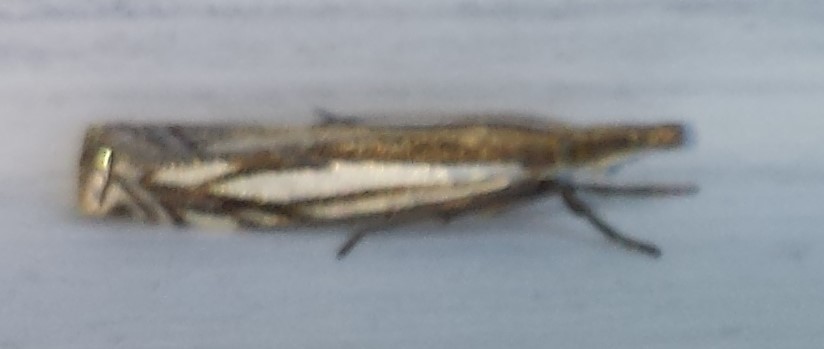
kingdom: Animalia
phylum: Arthropoda
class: Insecta
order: Lepidoptera
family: Crambidae
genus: Crambus
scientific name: Crambus saltuellus
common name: Pasture grass-veneer
